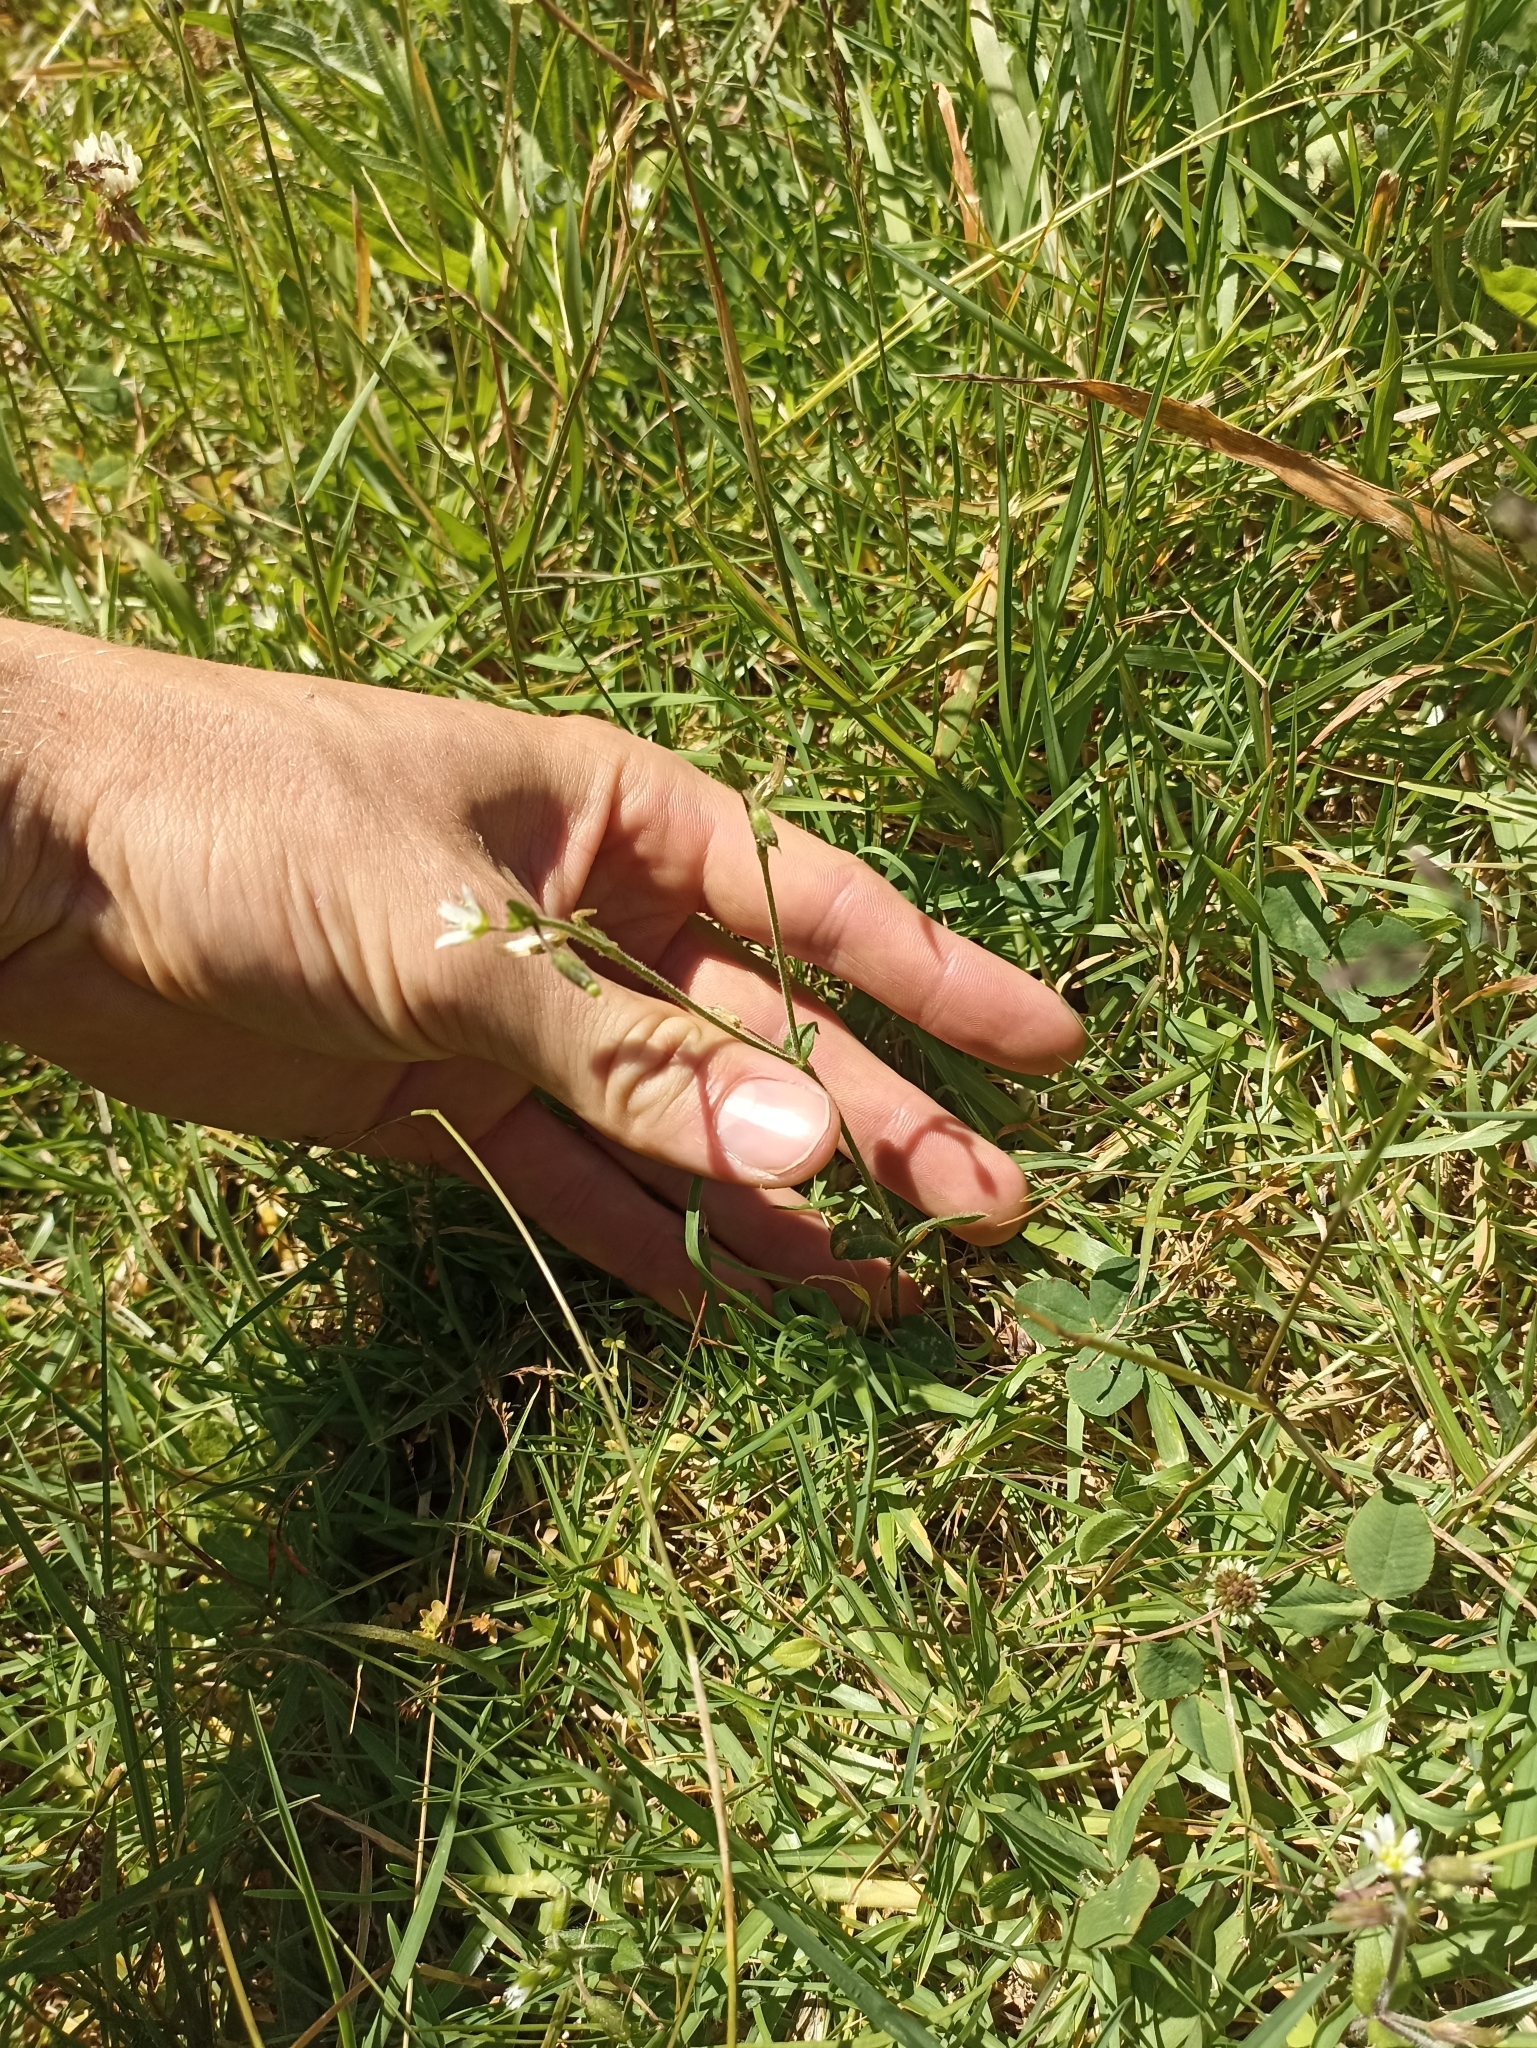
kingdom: Plantae
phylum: Tracheophyta
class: Magnoliopsida
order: Caryophyllales
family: Caryophyllaceae
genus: Cerastium
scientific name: Cerastium fontanum
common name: Common mouse-ear
